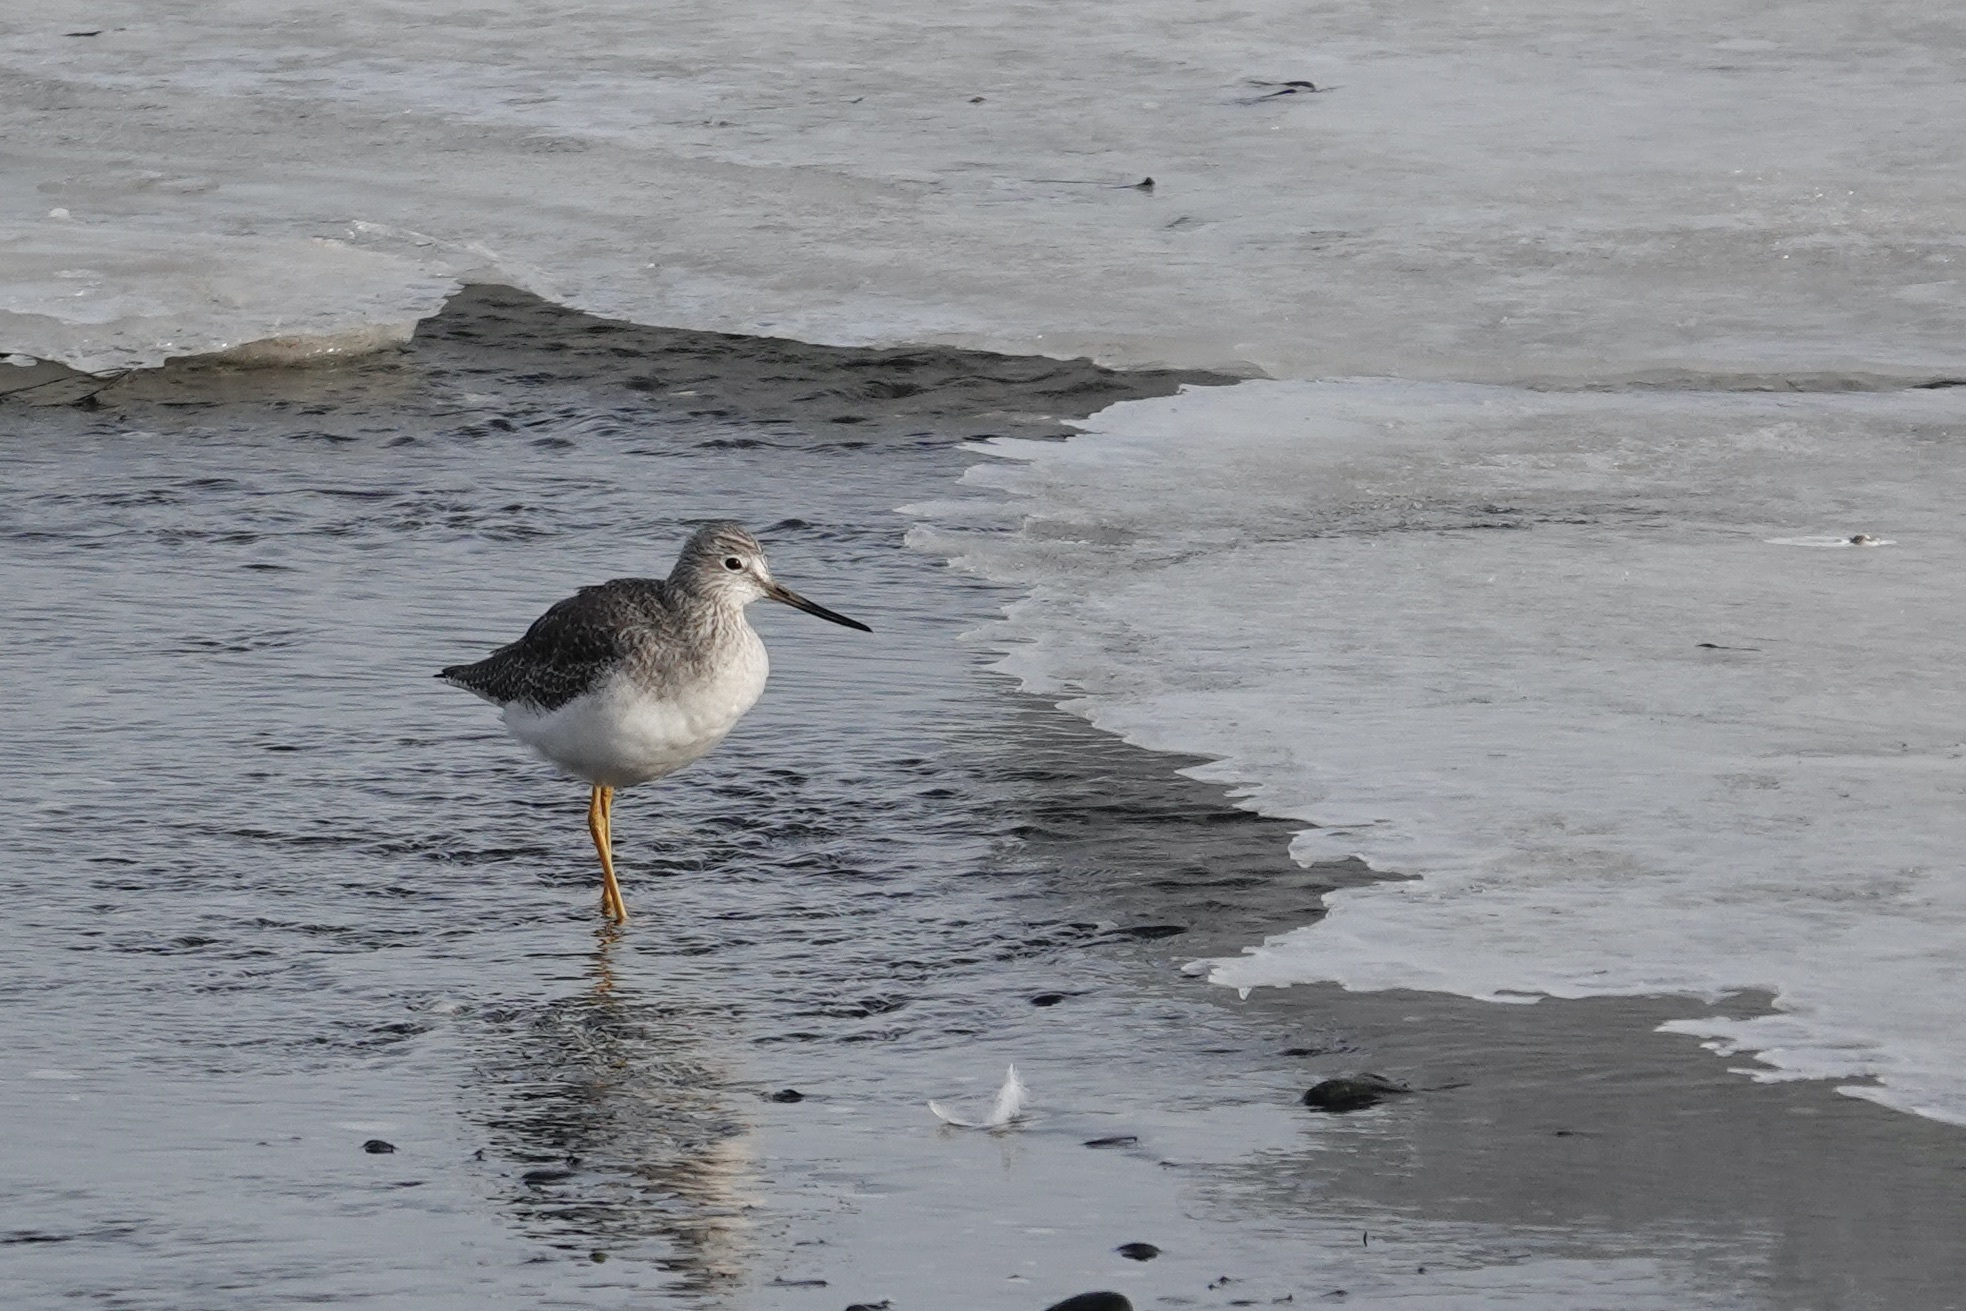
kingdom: Animalia
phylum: Chordata
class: Aves
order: Charadriiformes
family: Scolopacidae
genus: Tringa
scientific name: Tringa melanoleuca
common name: Greater yellowlegs
